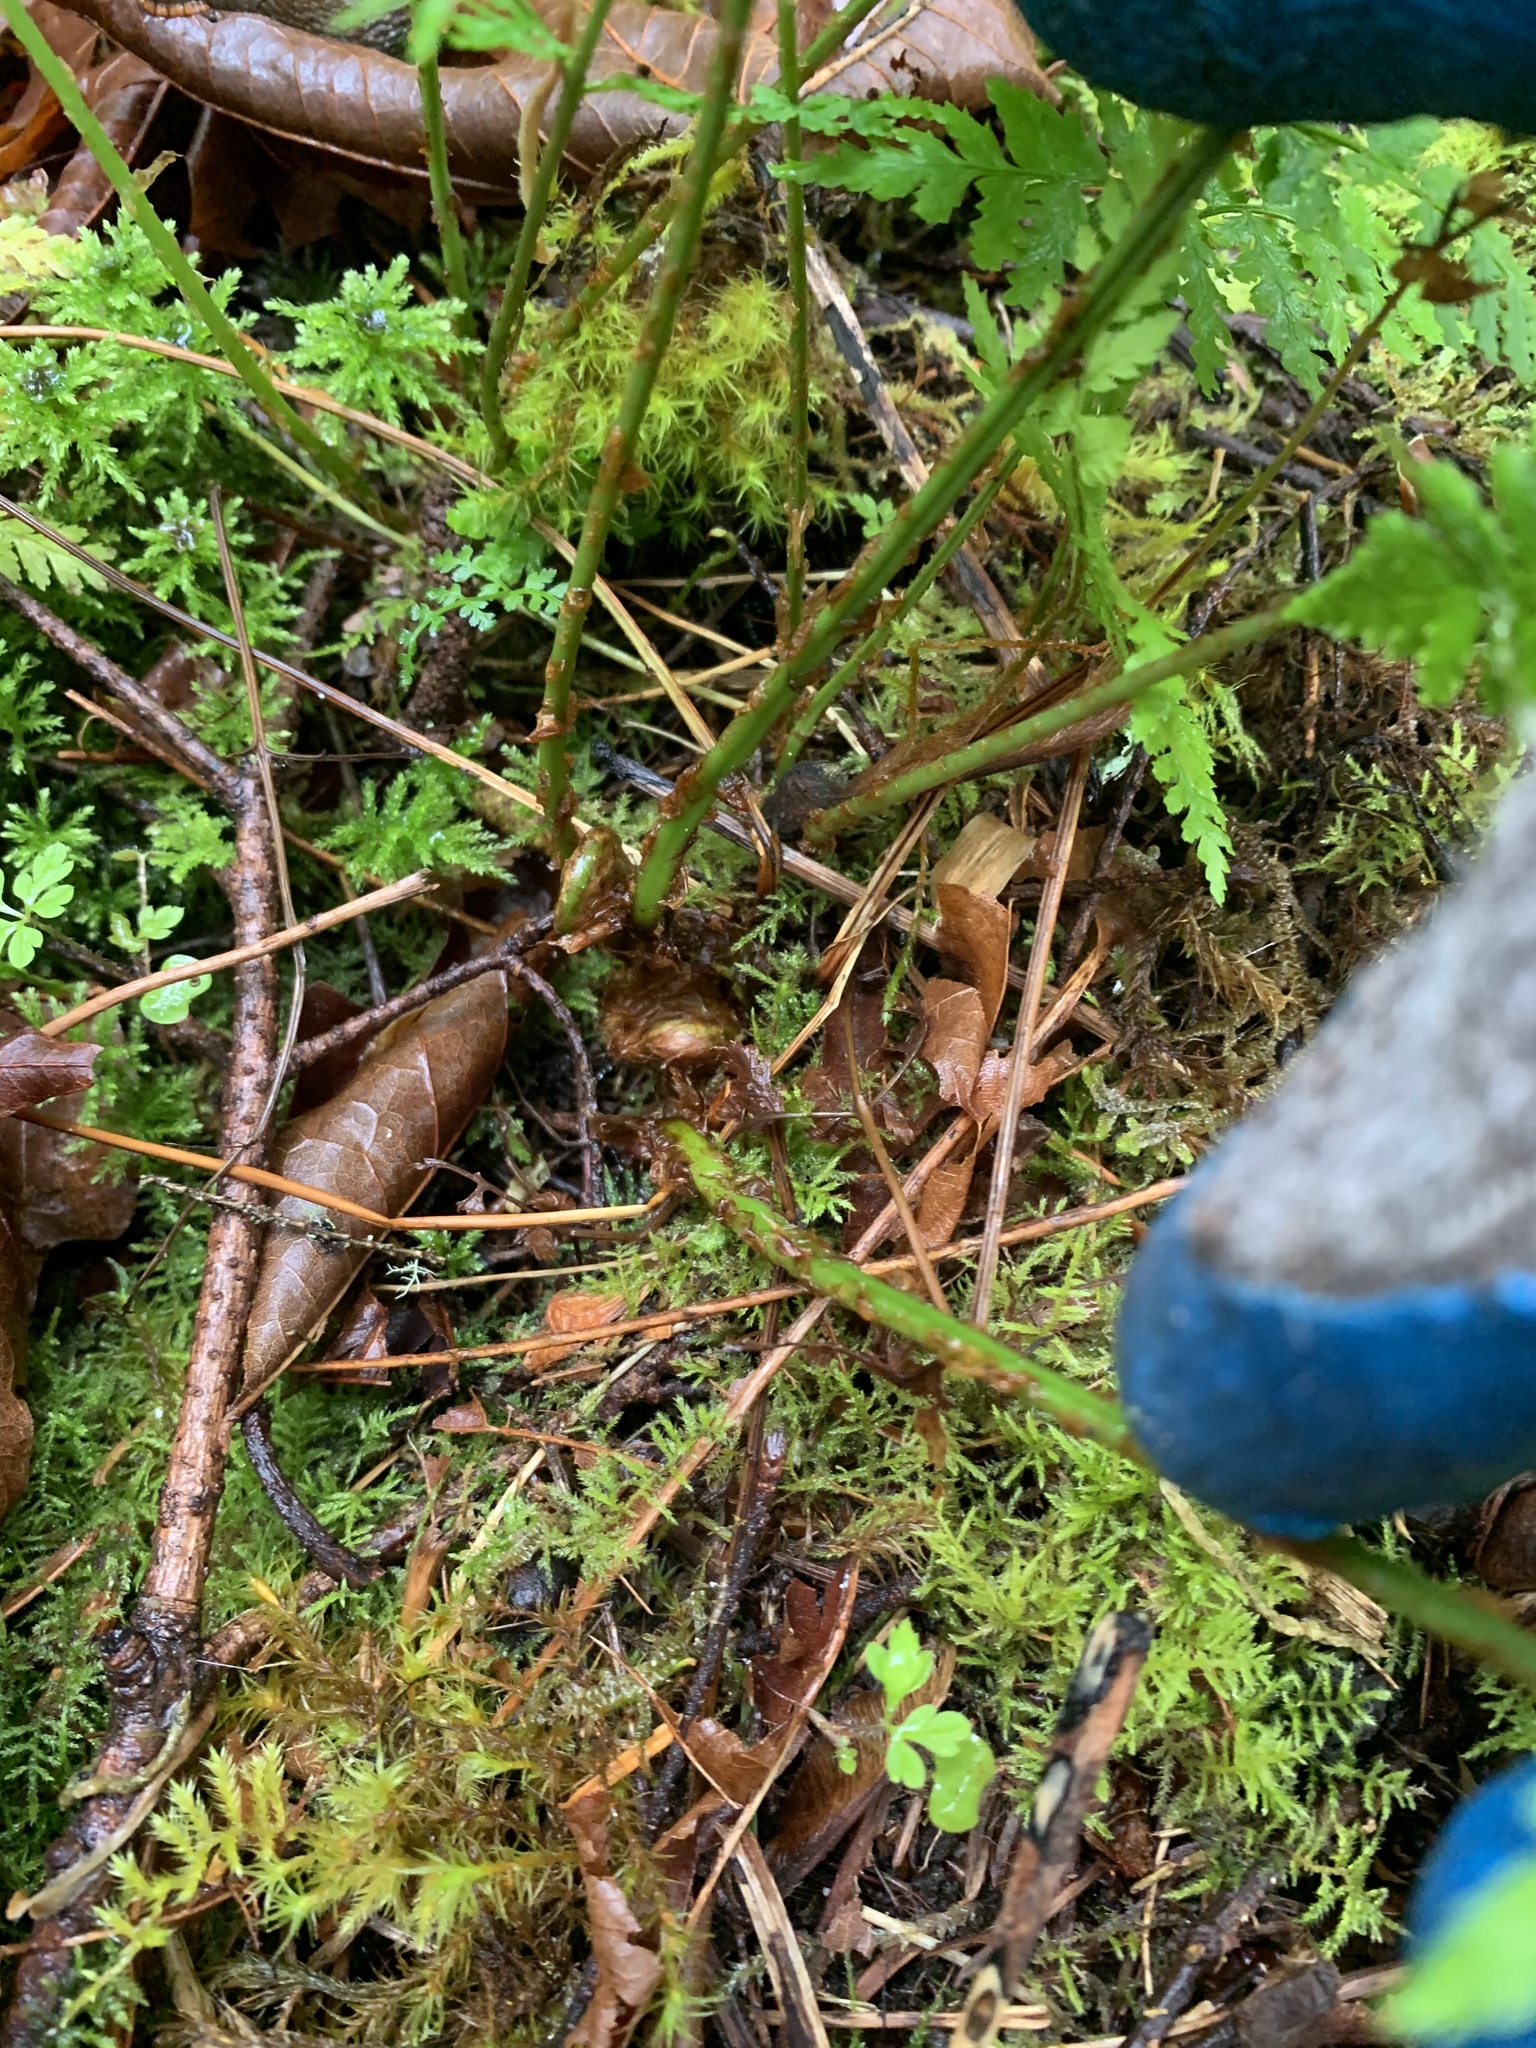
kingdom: Plantae
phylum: Tracheophyta
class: Polypodiopsida
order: Polypodiales
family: Dryopteridaceae
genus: Dryopteris
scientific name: Dryopteris expansa
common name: Northern buckler fern
